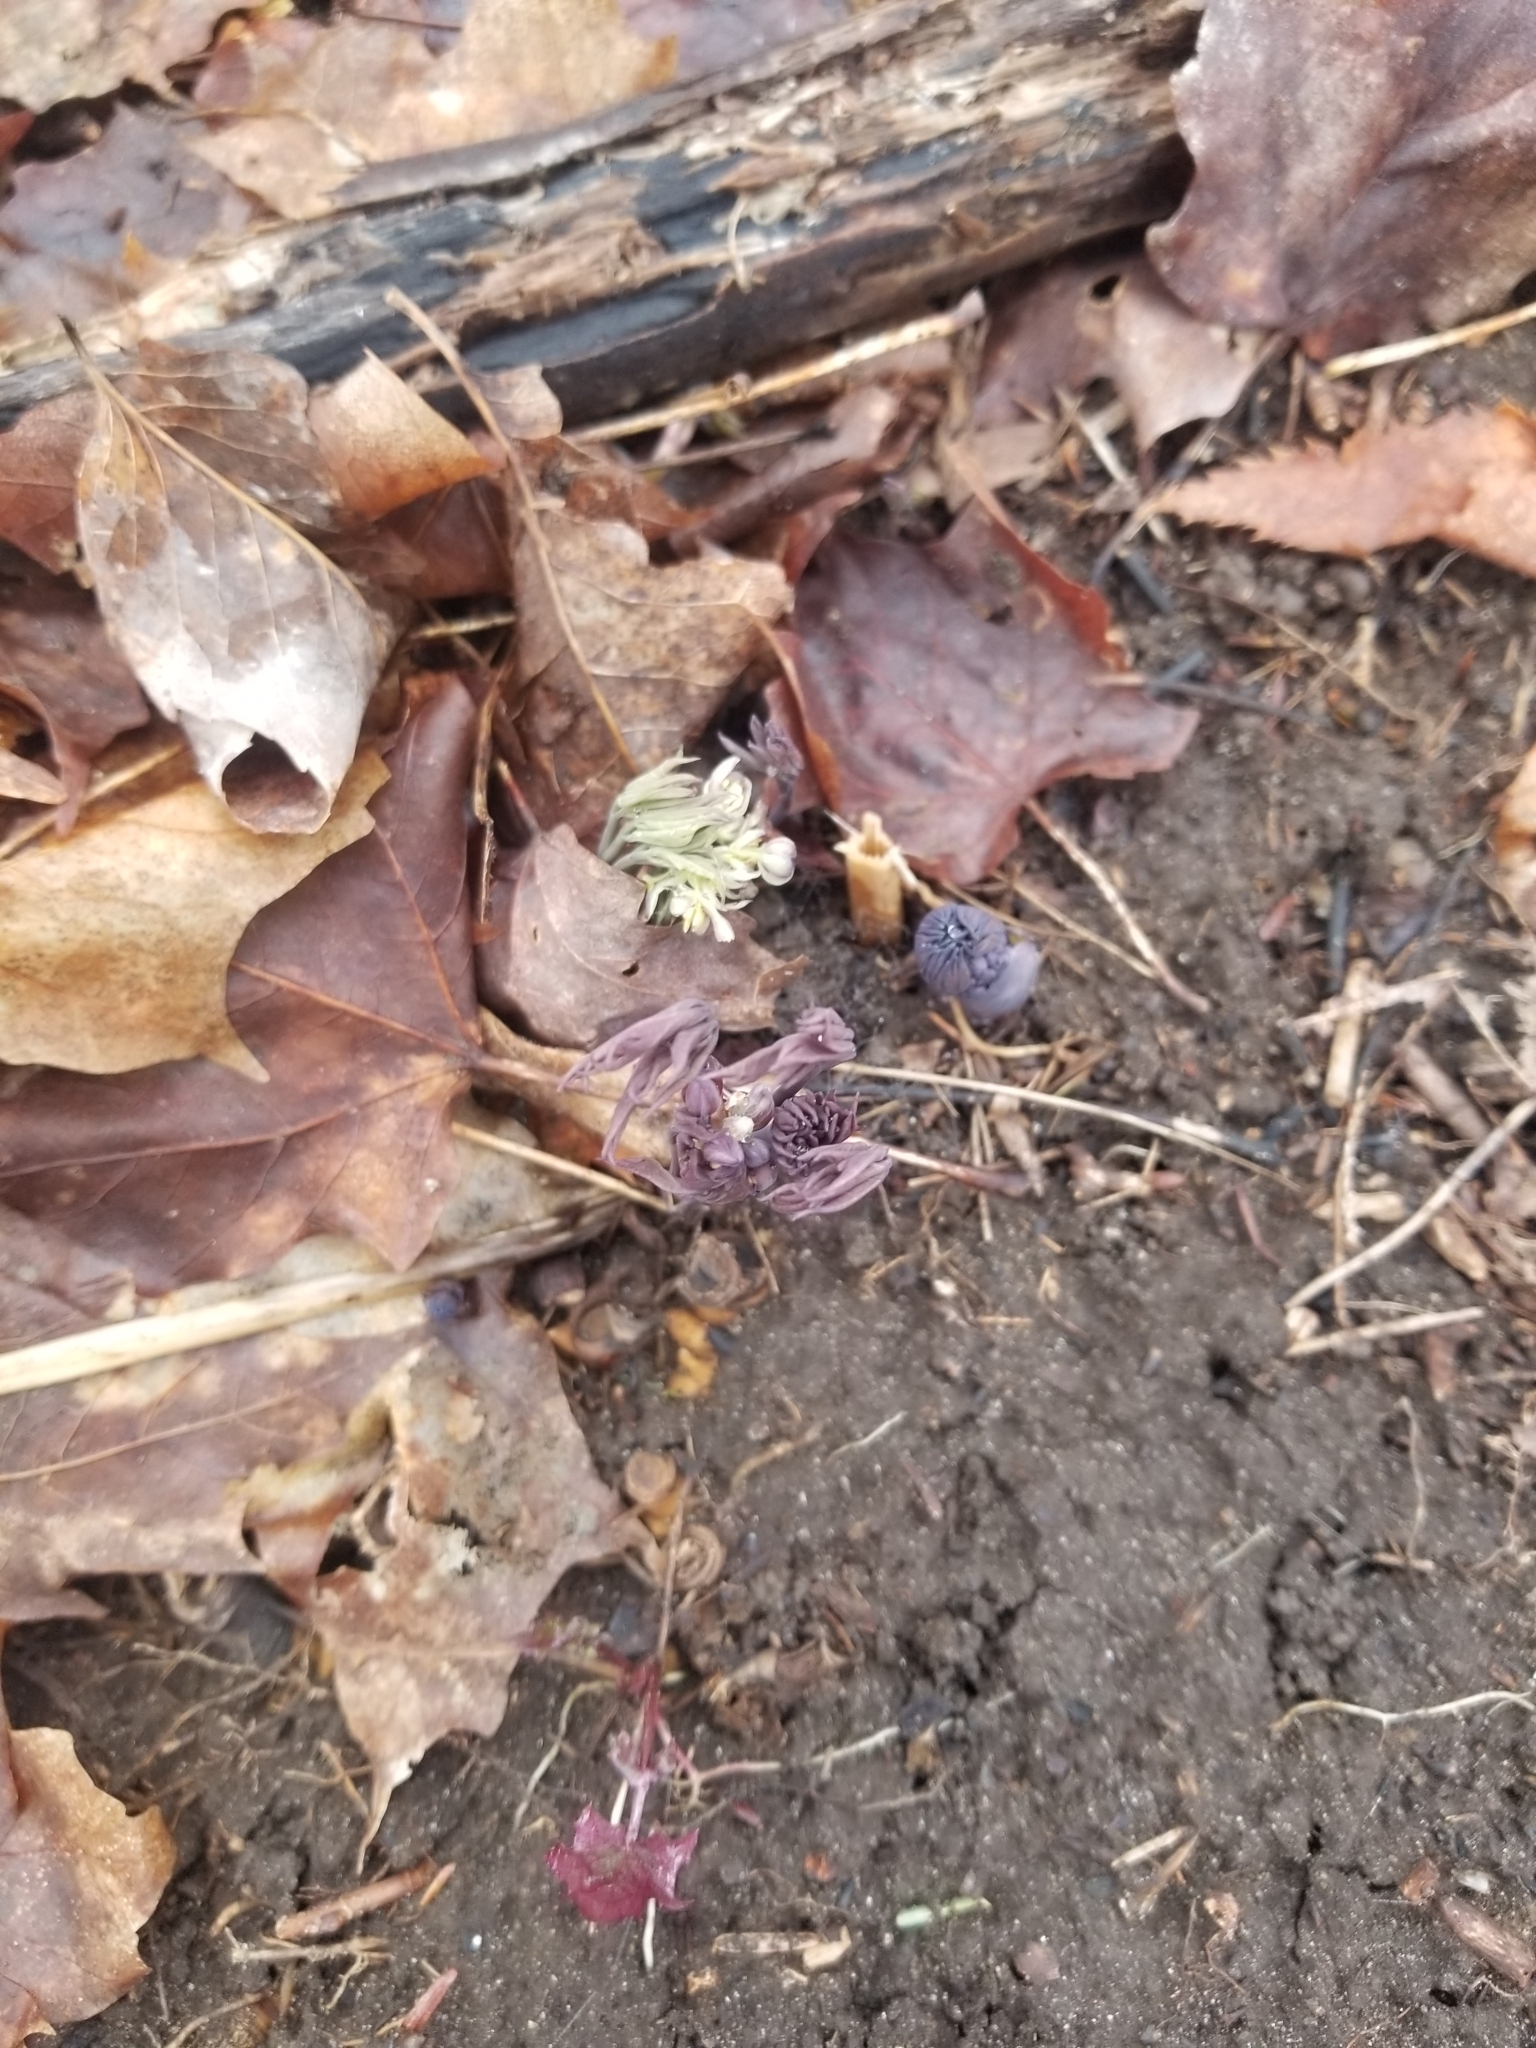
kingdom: Plantae
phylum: Tracheophyta
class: Magnoliopsida
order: Ranunculales
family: Berberidaceae
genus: Caulophyllum
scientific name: Caulophyllum giganteum
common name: Blue cohosh
